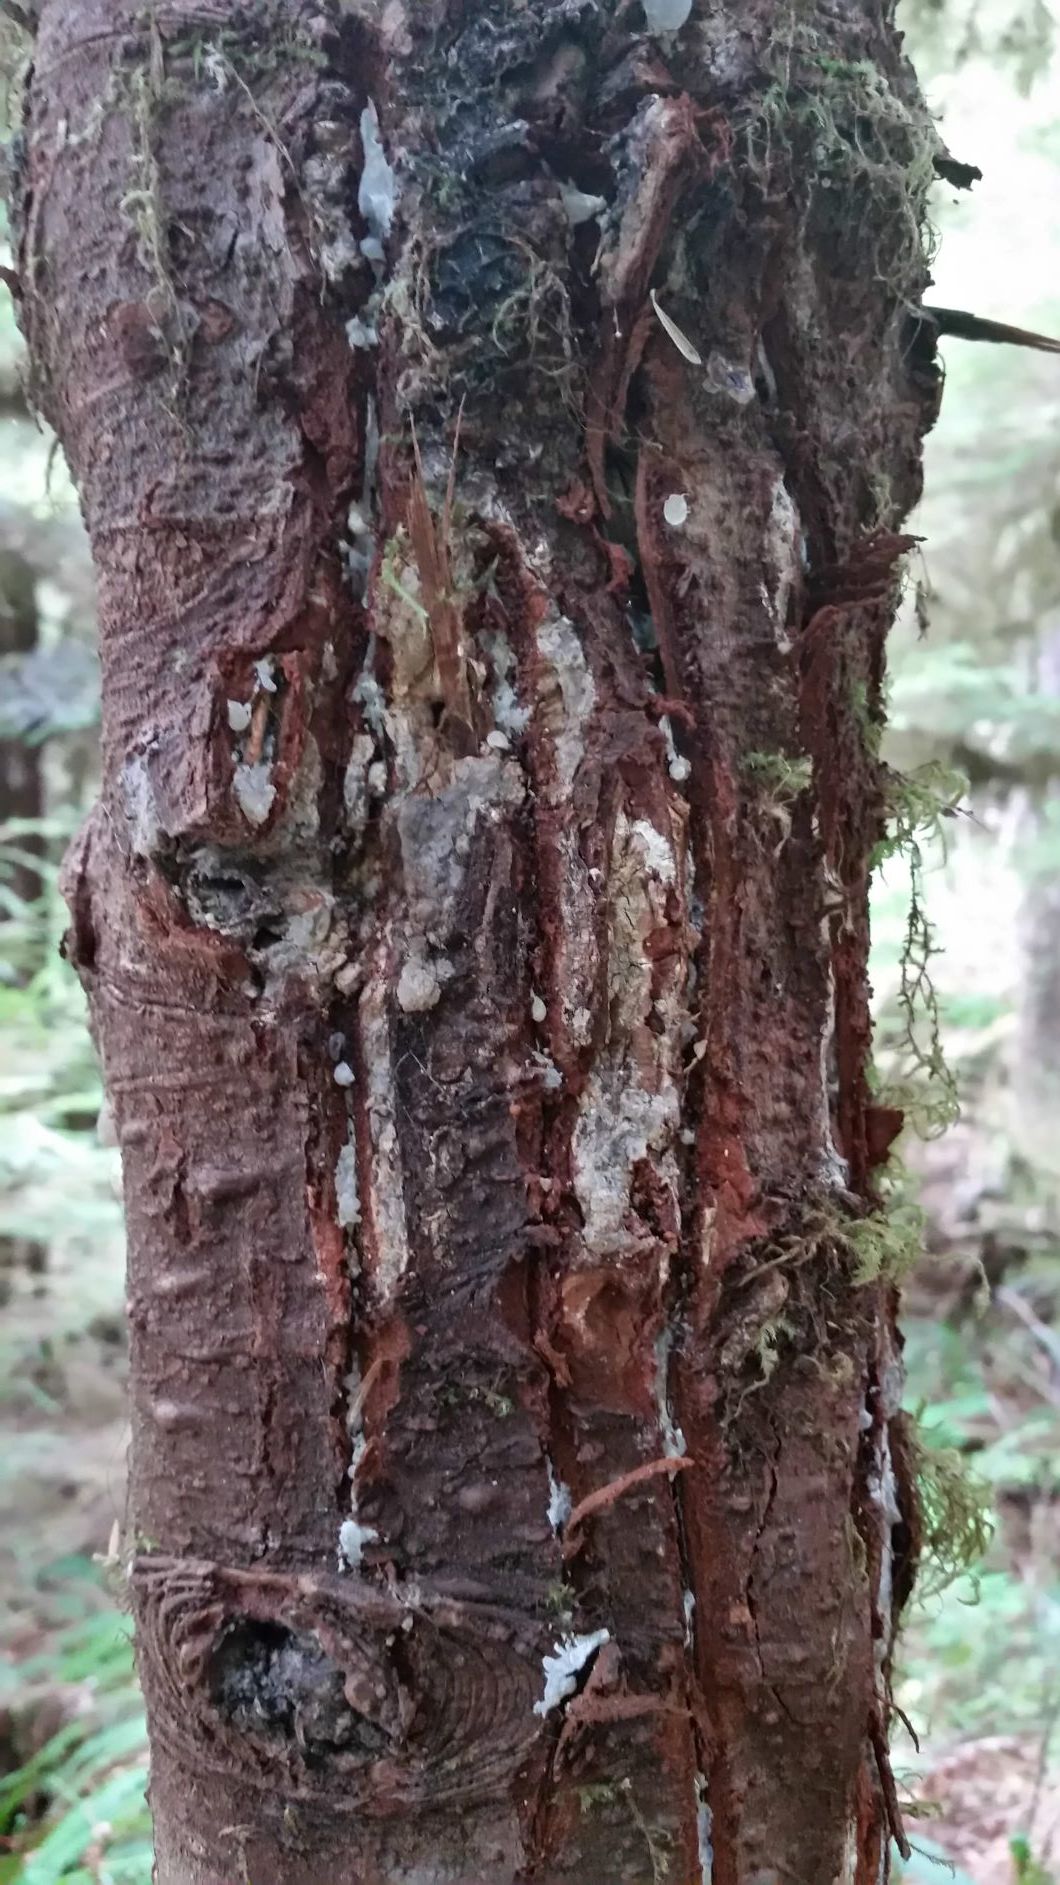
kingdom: Animalia
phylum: Chordata
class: Mammalia
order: Carnivora
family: Ursidae
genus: Ursus
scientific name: Ursus americanus
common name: American black bear
